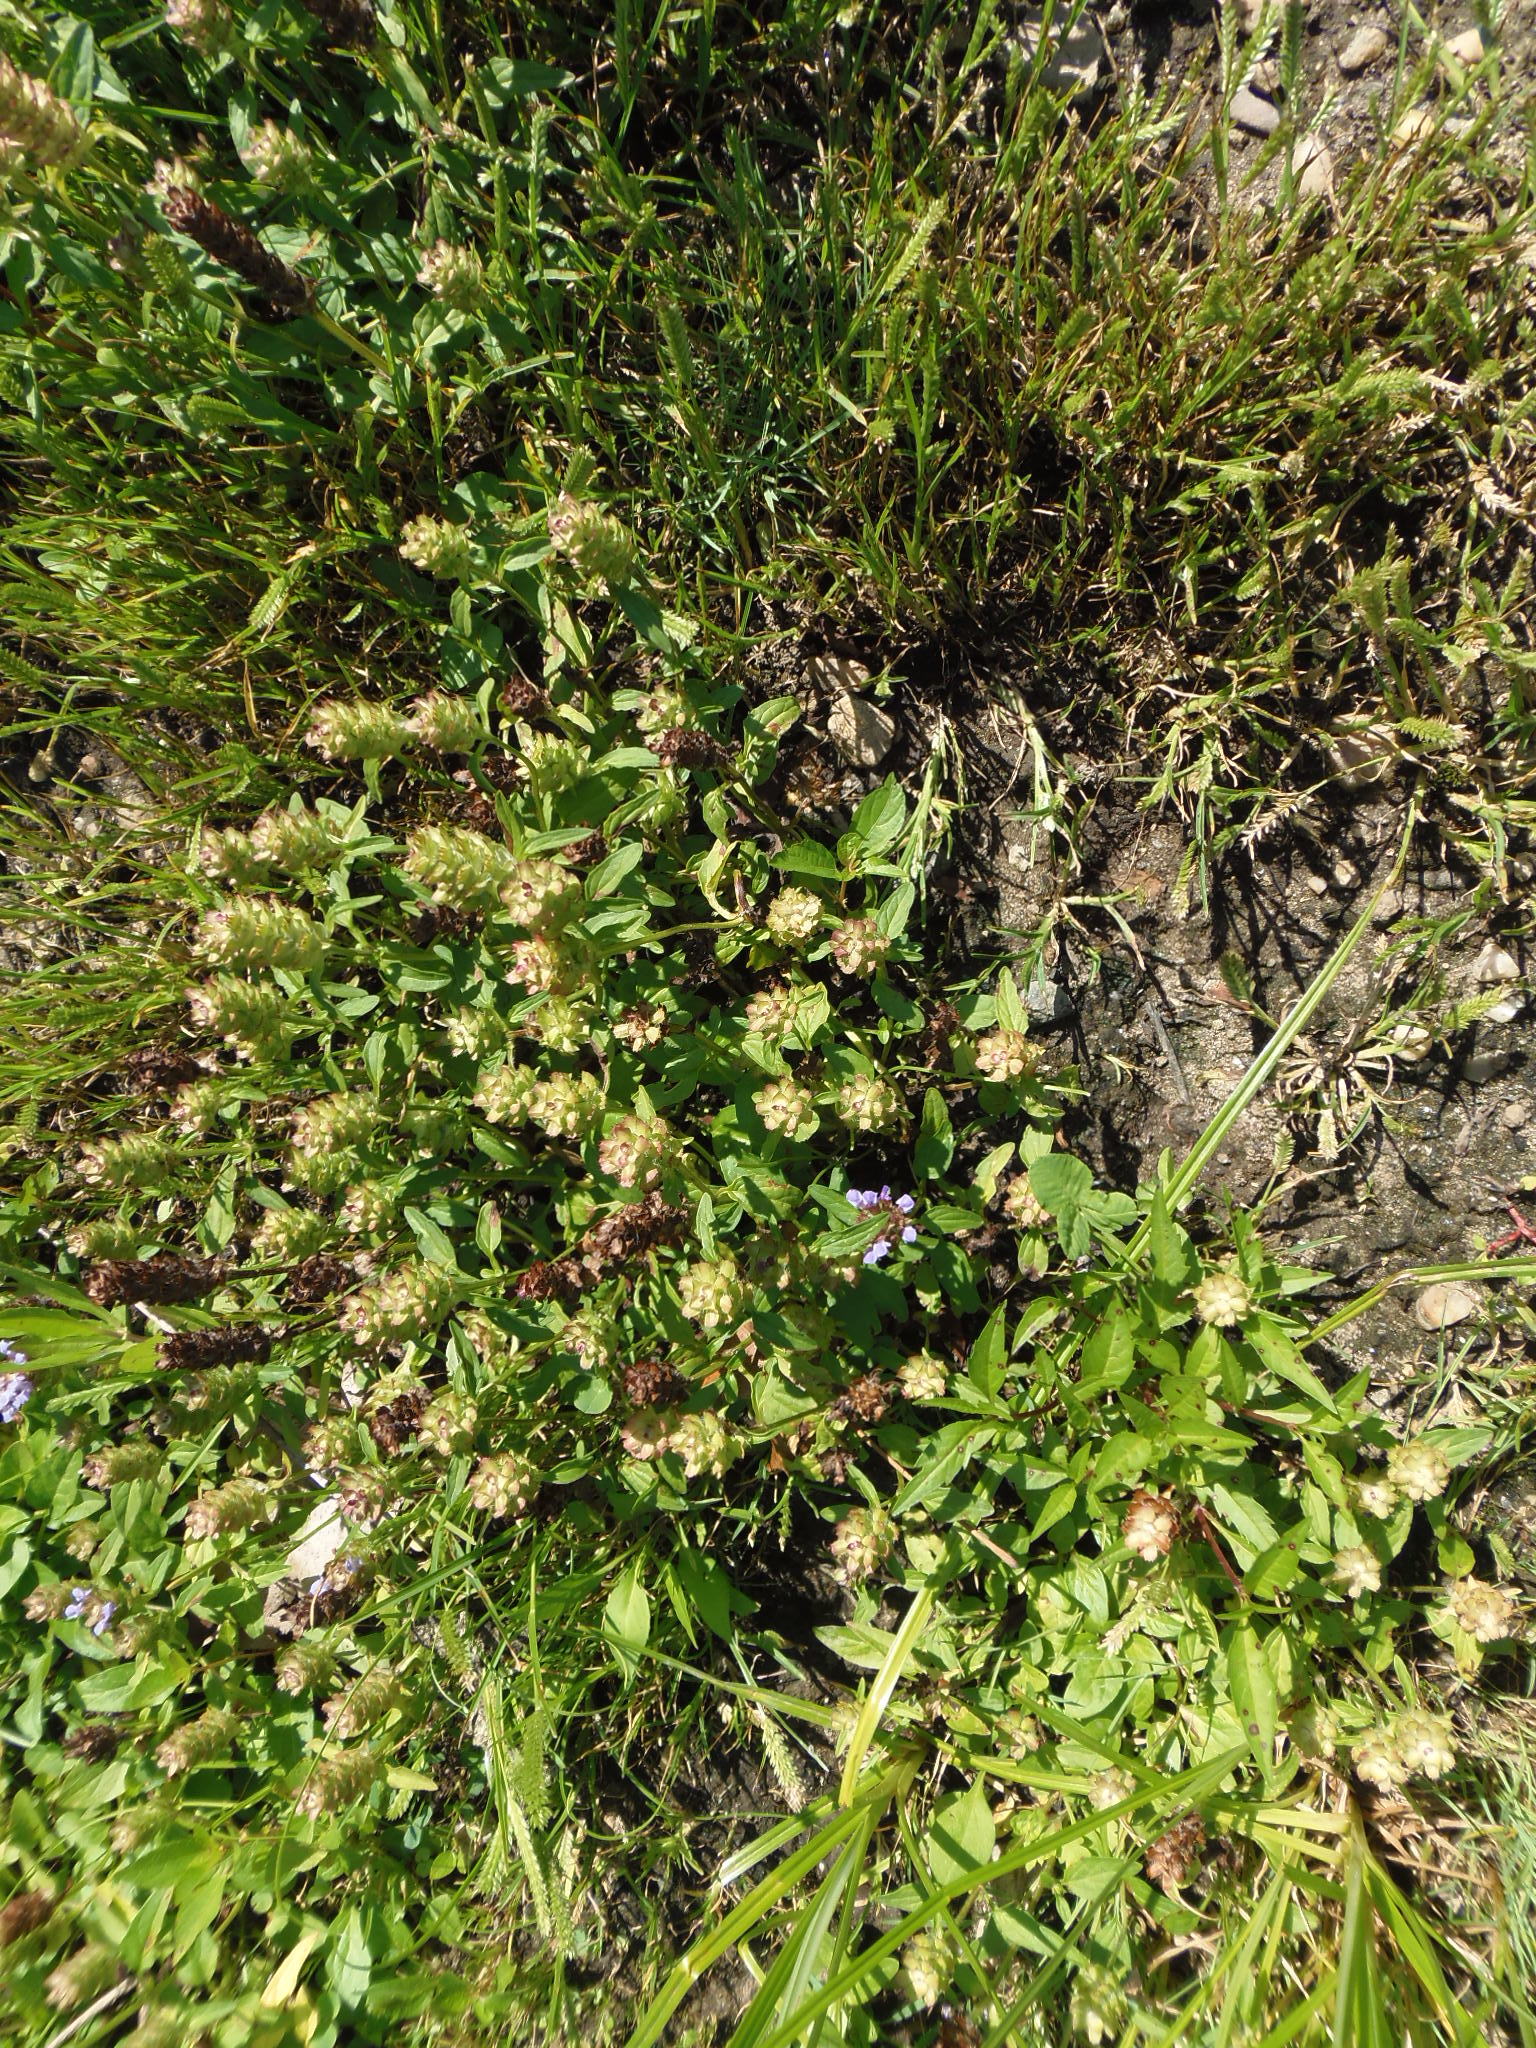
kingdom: Plantae
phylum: Tracheophyta
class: Magnoliopsida
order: Lamiales
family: Lamiaceae
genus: Prunella
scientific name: Prunella vulgaris
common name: Heal-all
